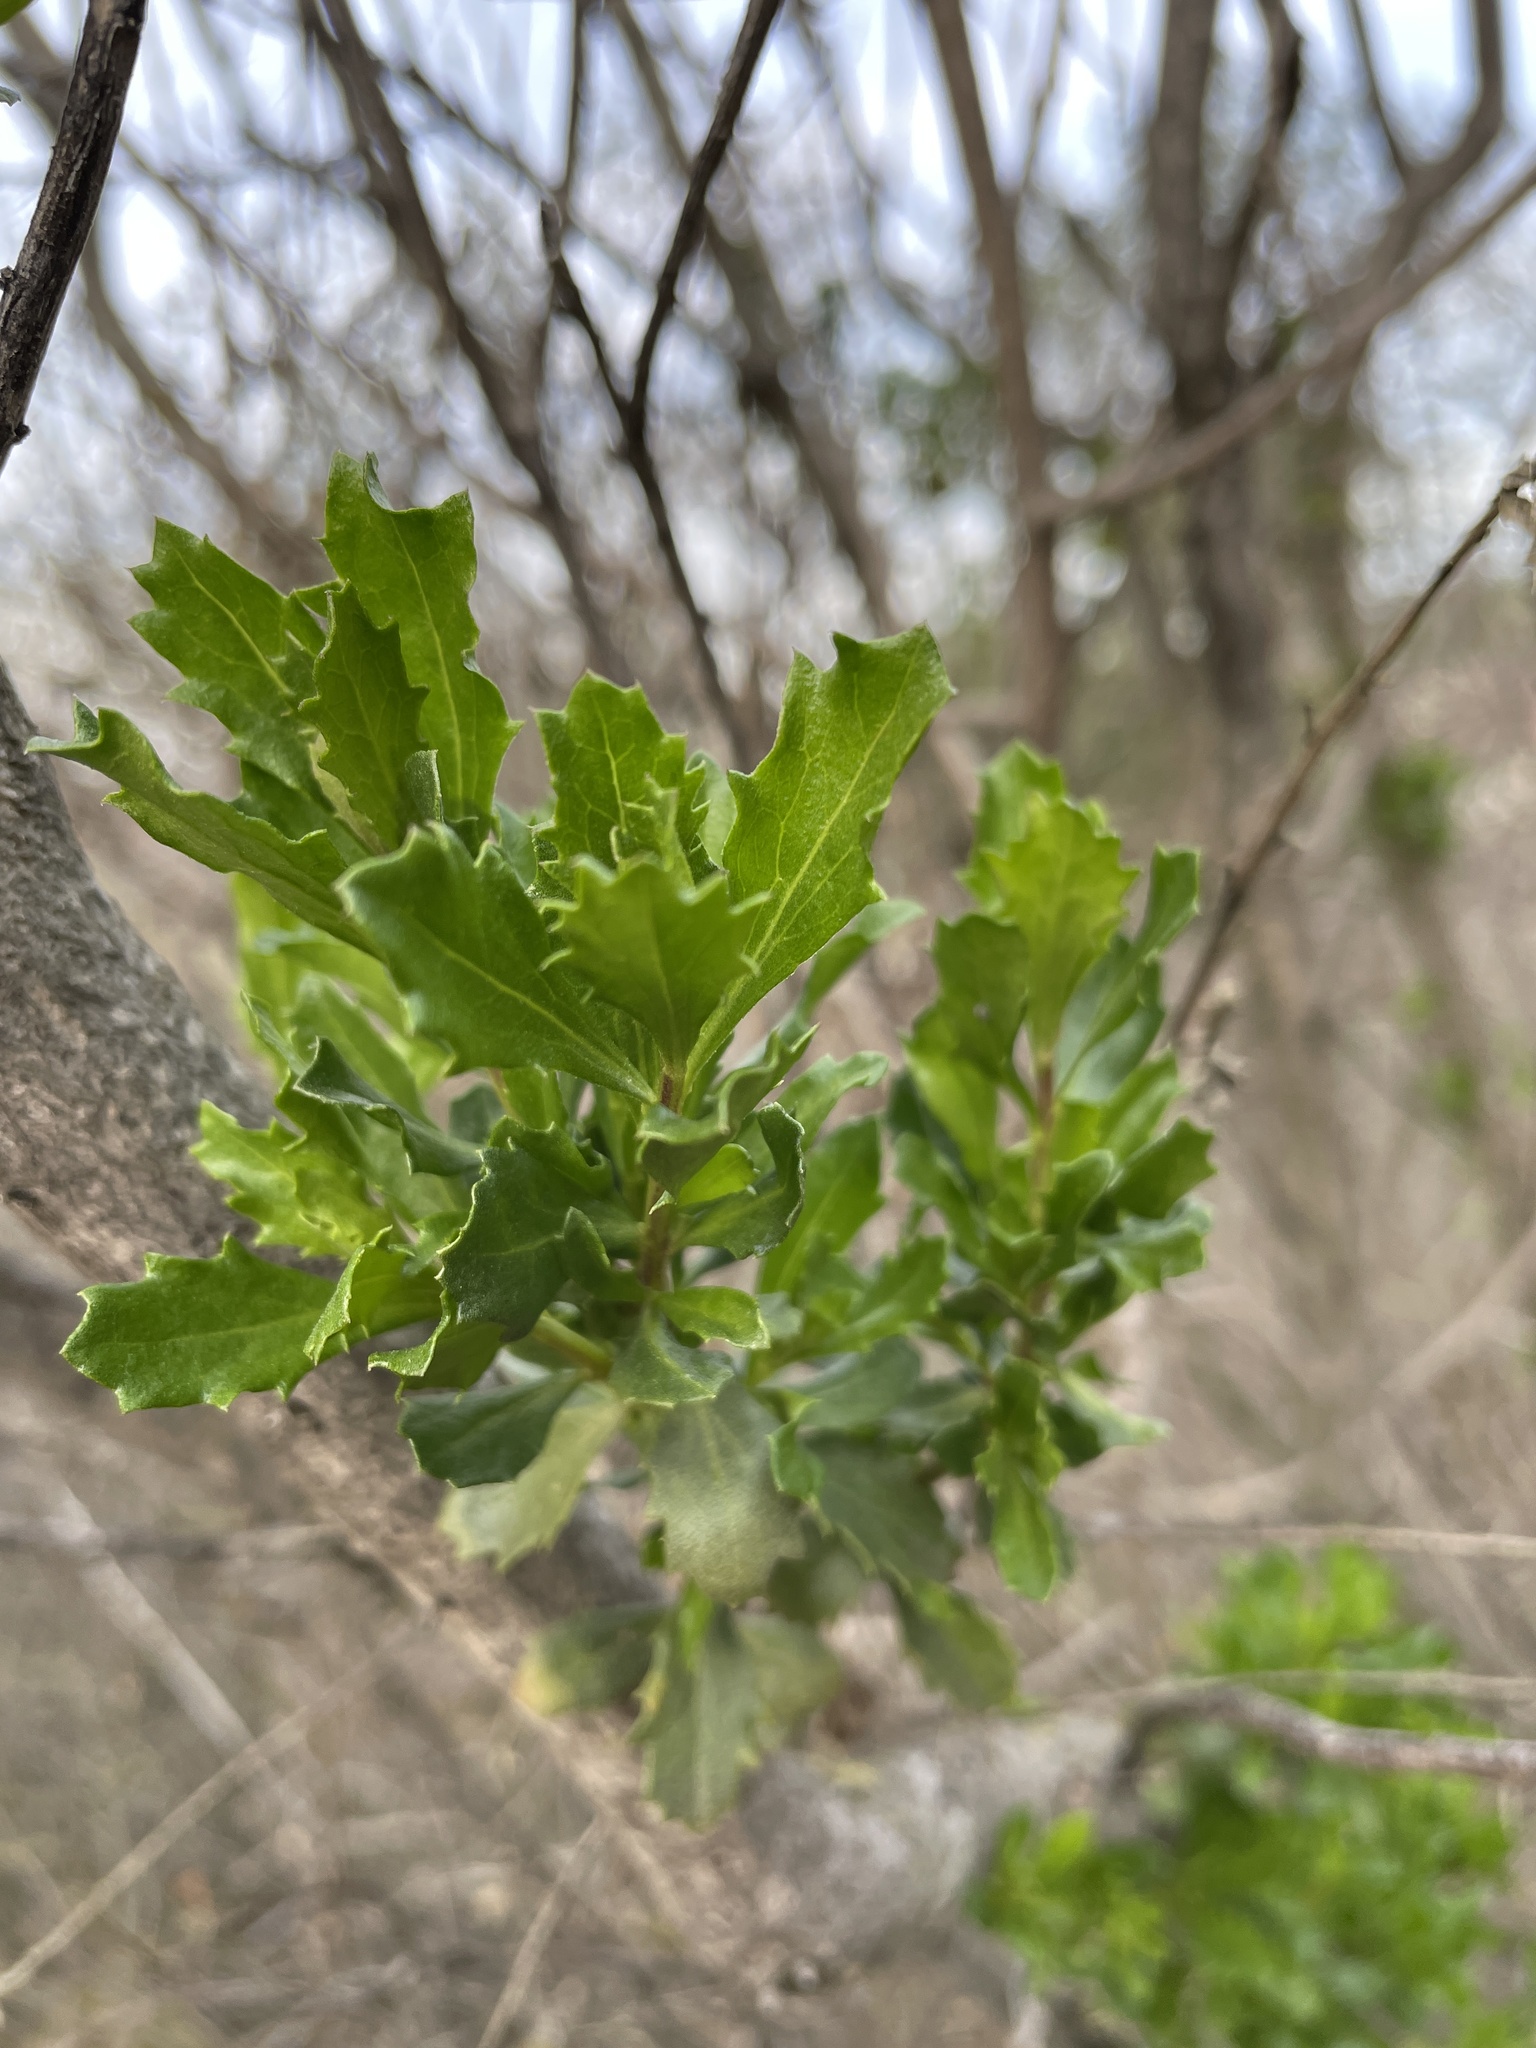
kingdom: Plantae
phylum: Tracheophyta
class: Magnoliopsida
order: Asterales
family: Asteraceae
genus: Baccharis
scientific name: Baccharis pilularis
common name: Coyotebrush
